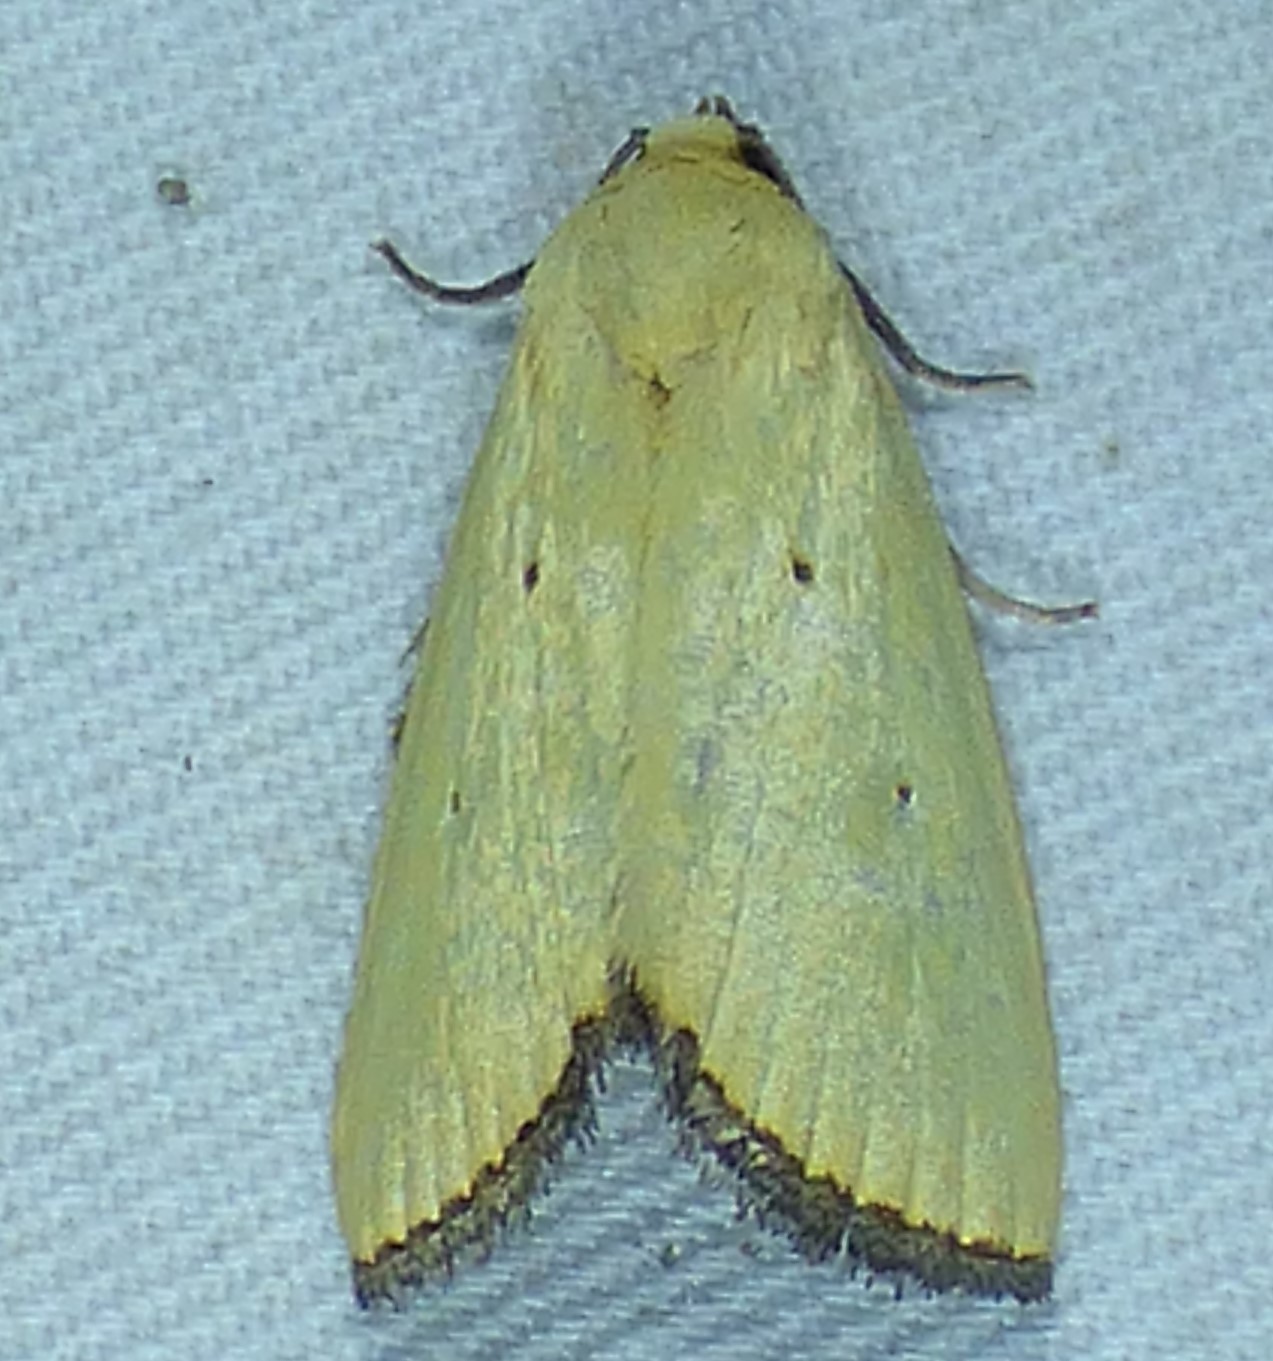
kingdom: Animalia
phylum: Arthropoda
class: Insecta
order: Lepidoptera
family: Noctuidae
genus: Marimatha
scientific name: Marimatha nigrofimbria
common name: Black-bordered lemon moth
